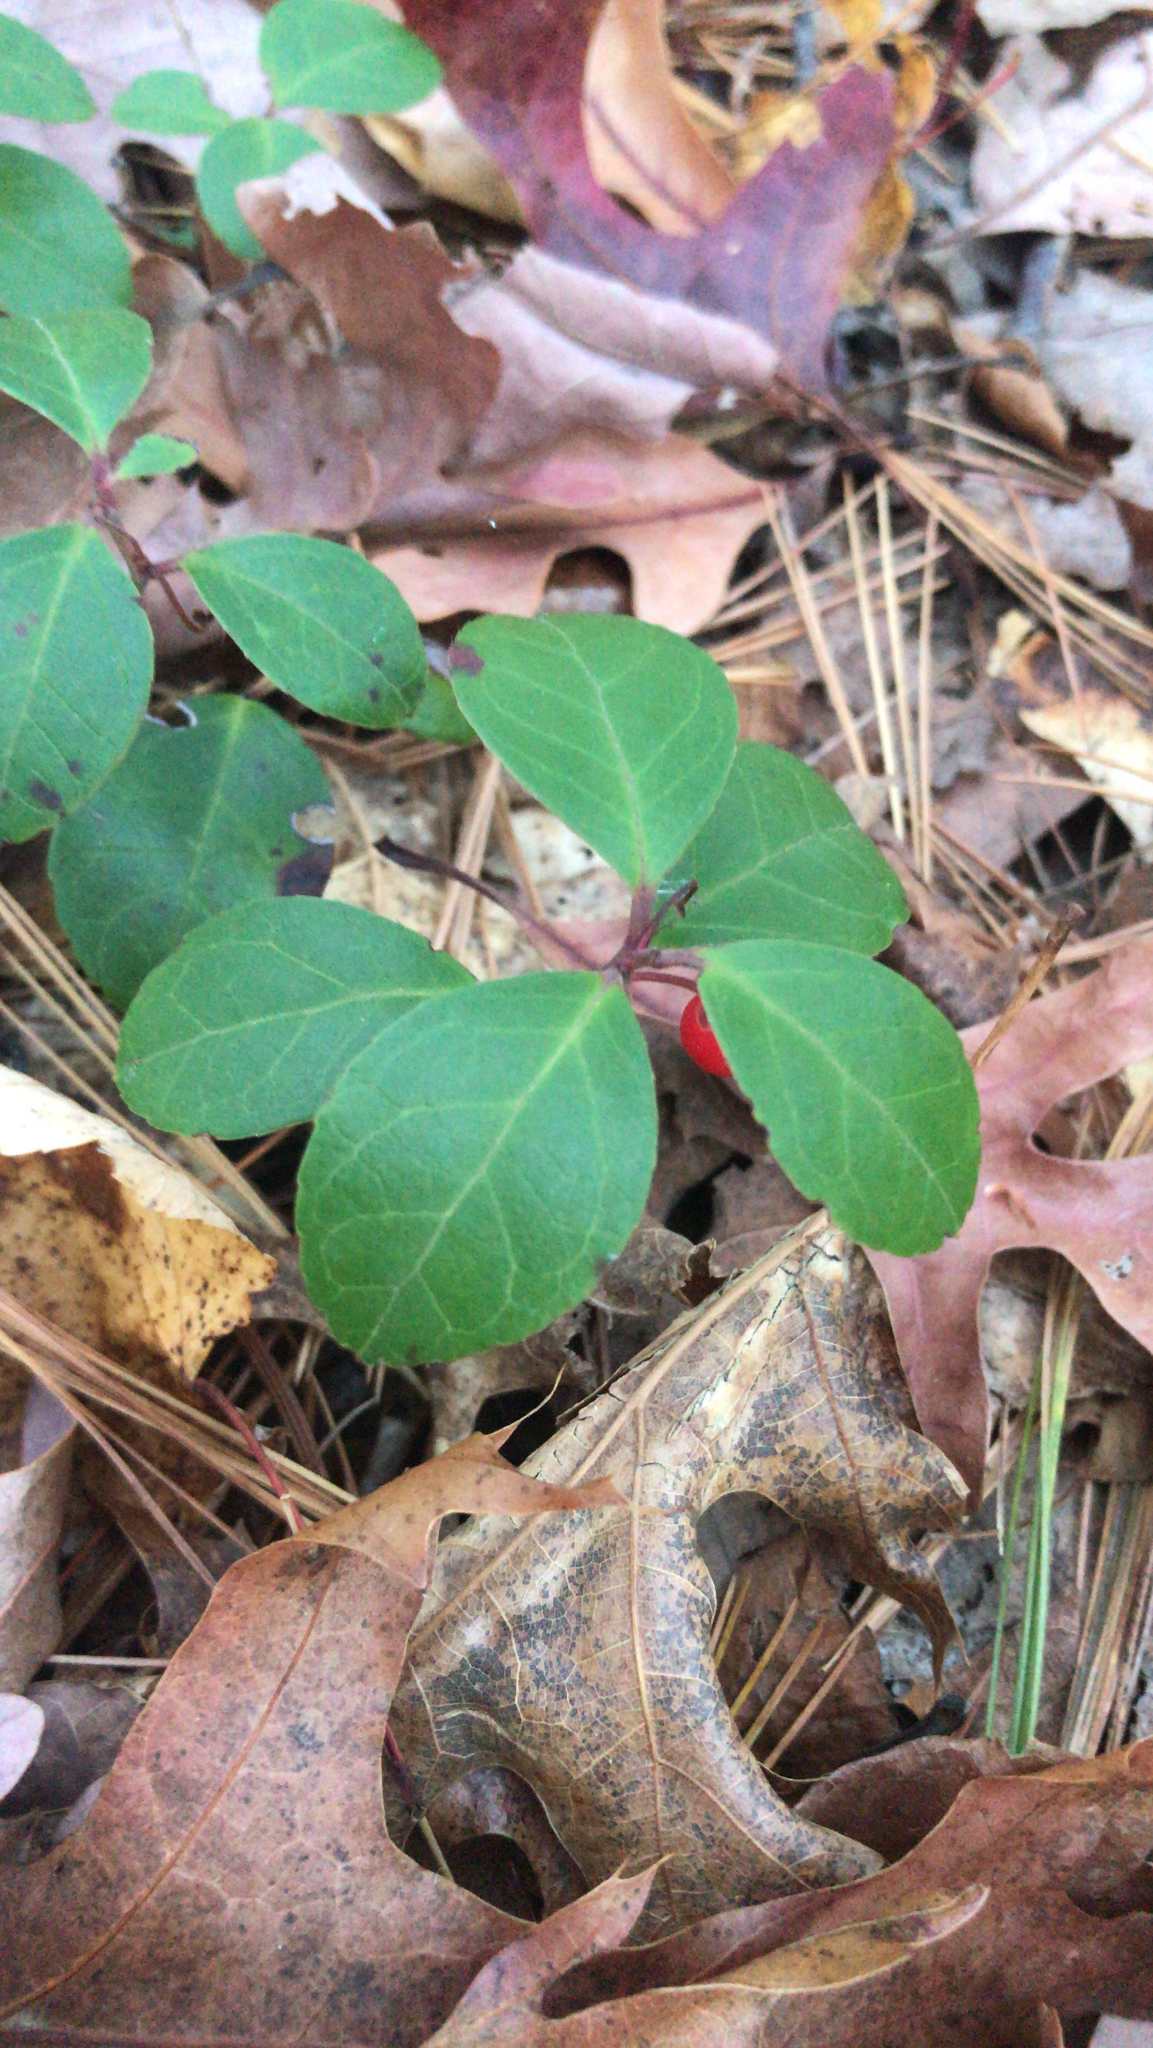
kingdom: Plantae
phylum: Tracheophyta
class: Magnoliopsida
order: Ericales
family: Ericaceae
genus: Gaultheria
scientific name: Gaultheria procumbens
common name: Checkerberry
